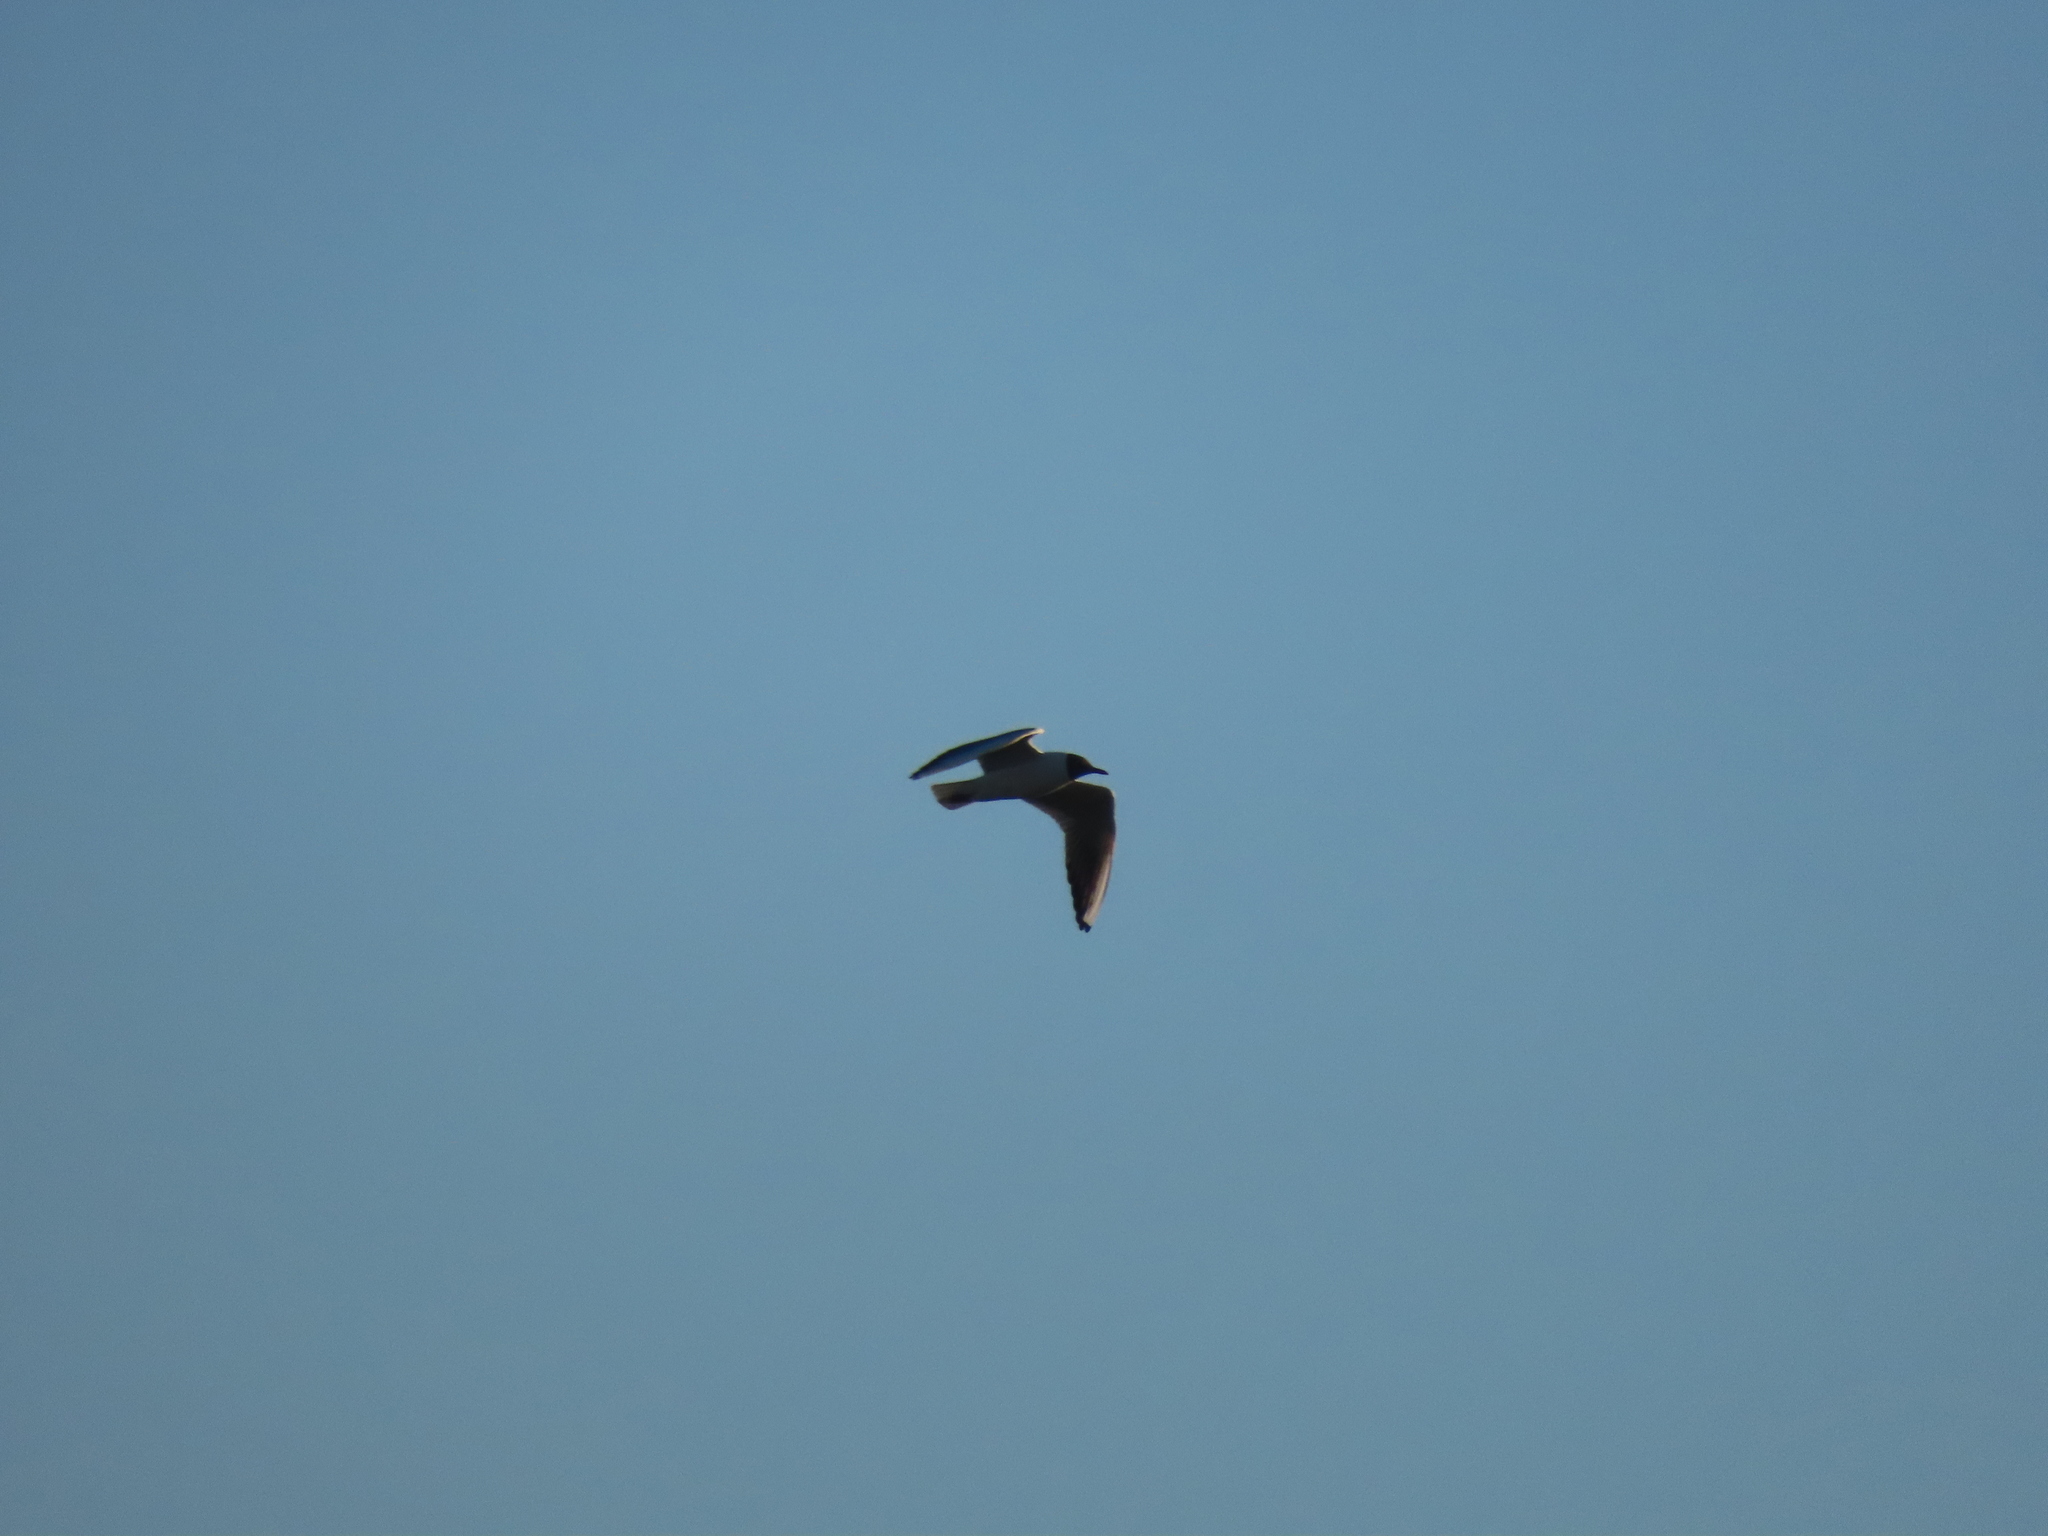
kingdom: Animalia
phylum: Chordata
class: Aves
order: Charadriiformes
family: Laridae
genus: Chroicocephalus
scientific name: Chroicocephalus ridibundus
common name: Black-headed gull
